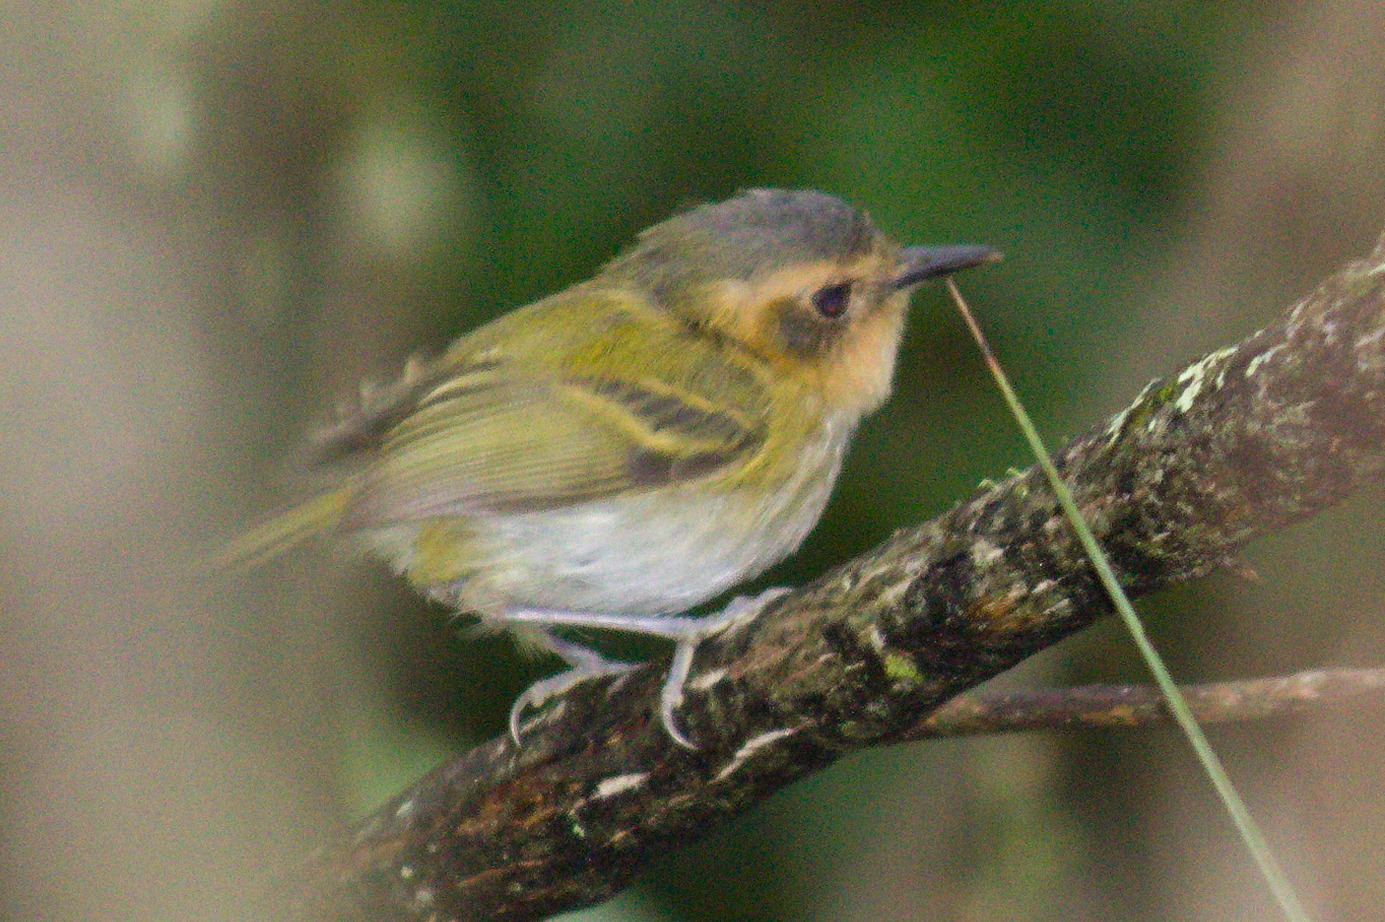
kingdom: Animalia
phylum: Chordata
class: Aves
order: Passeriformes
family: Tyrannidae
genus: Poecilotriccus
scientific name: Poecilotriccus plumbeiceps
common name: Ochre-faced tody-flycatcher
